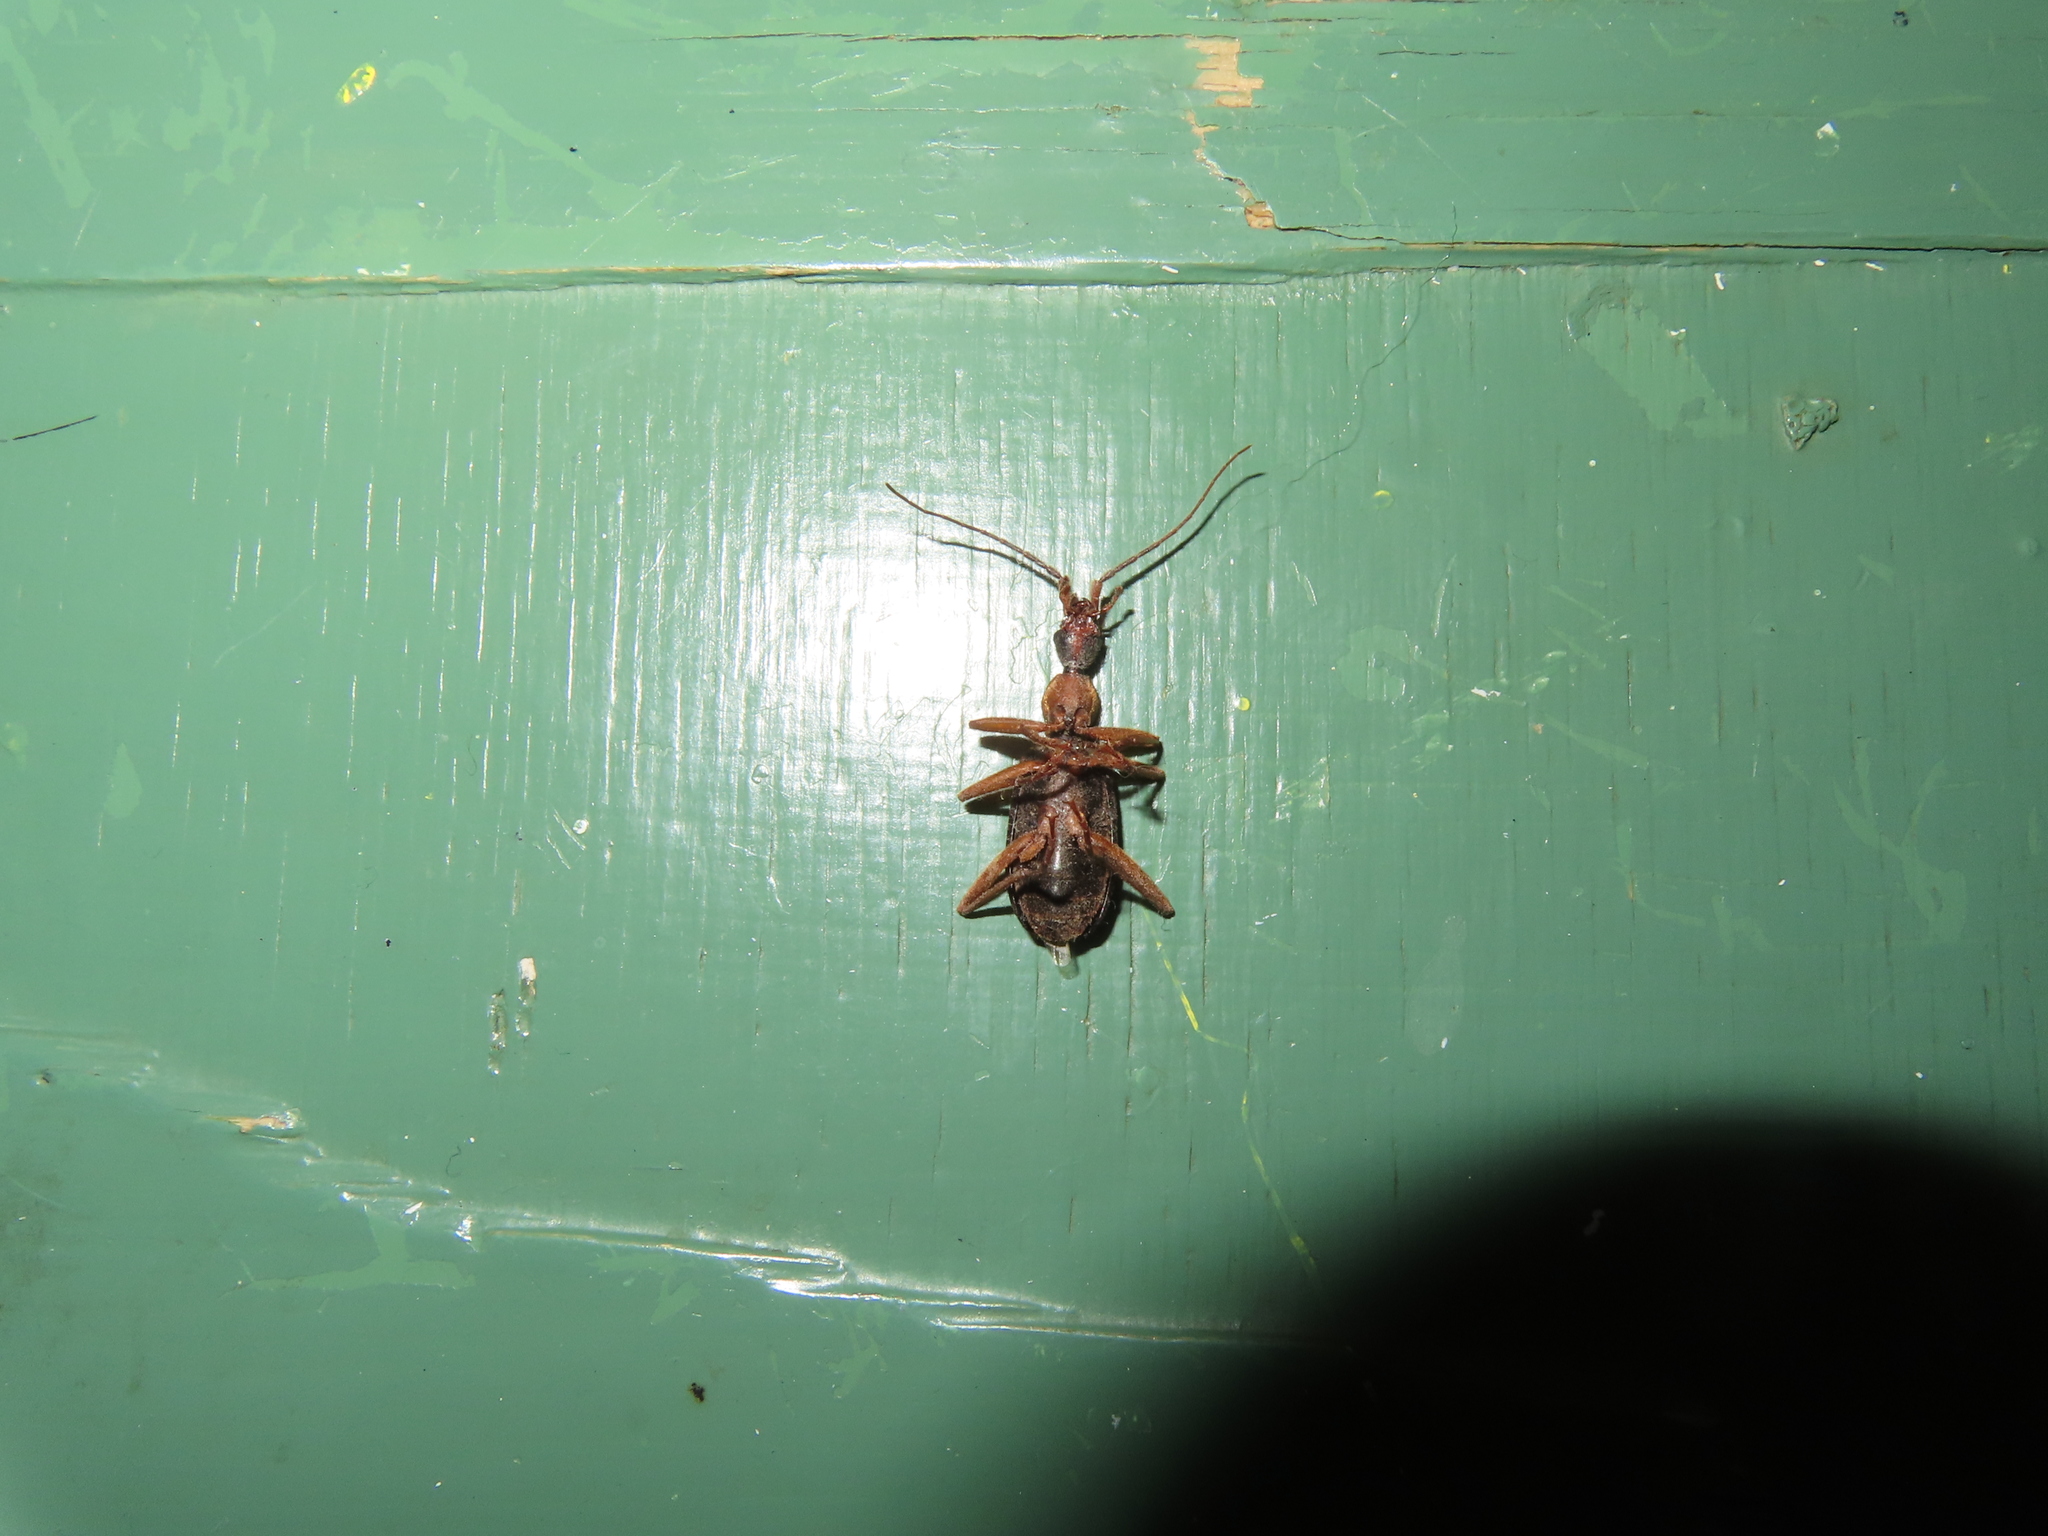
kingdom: Animalia
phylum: Arthropoda
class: Insecta
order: Coleoptera
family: Carabidae
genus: Galerita
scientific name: Galerita bicolor
